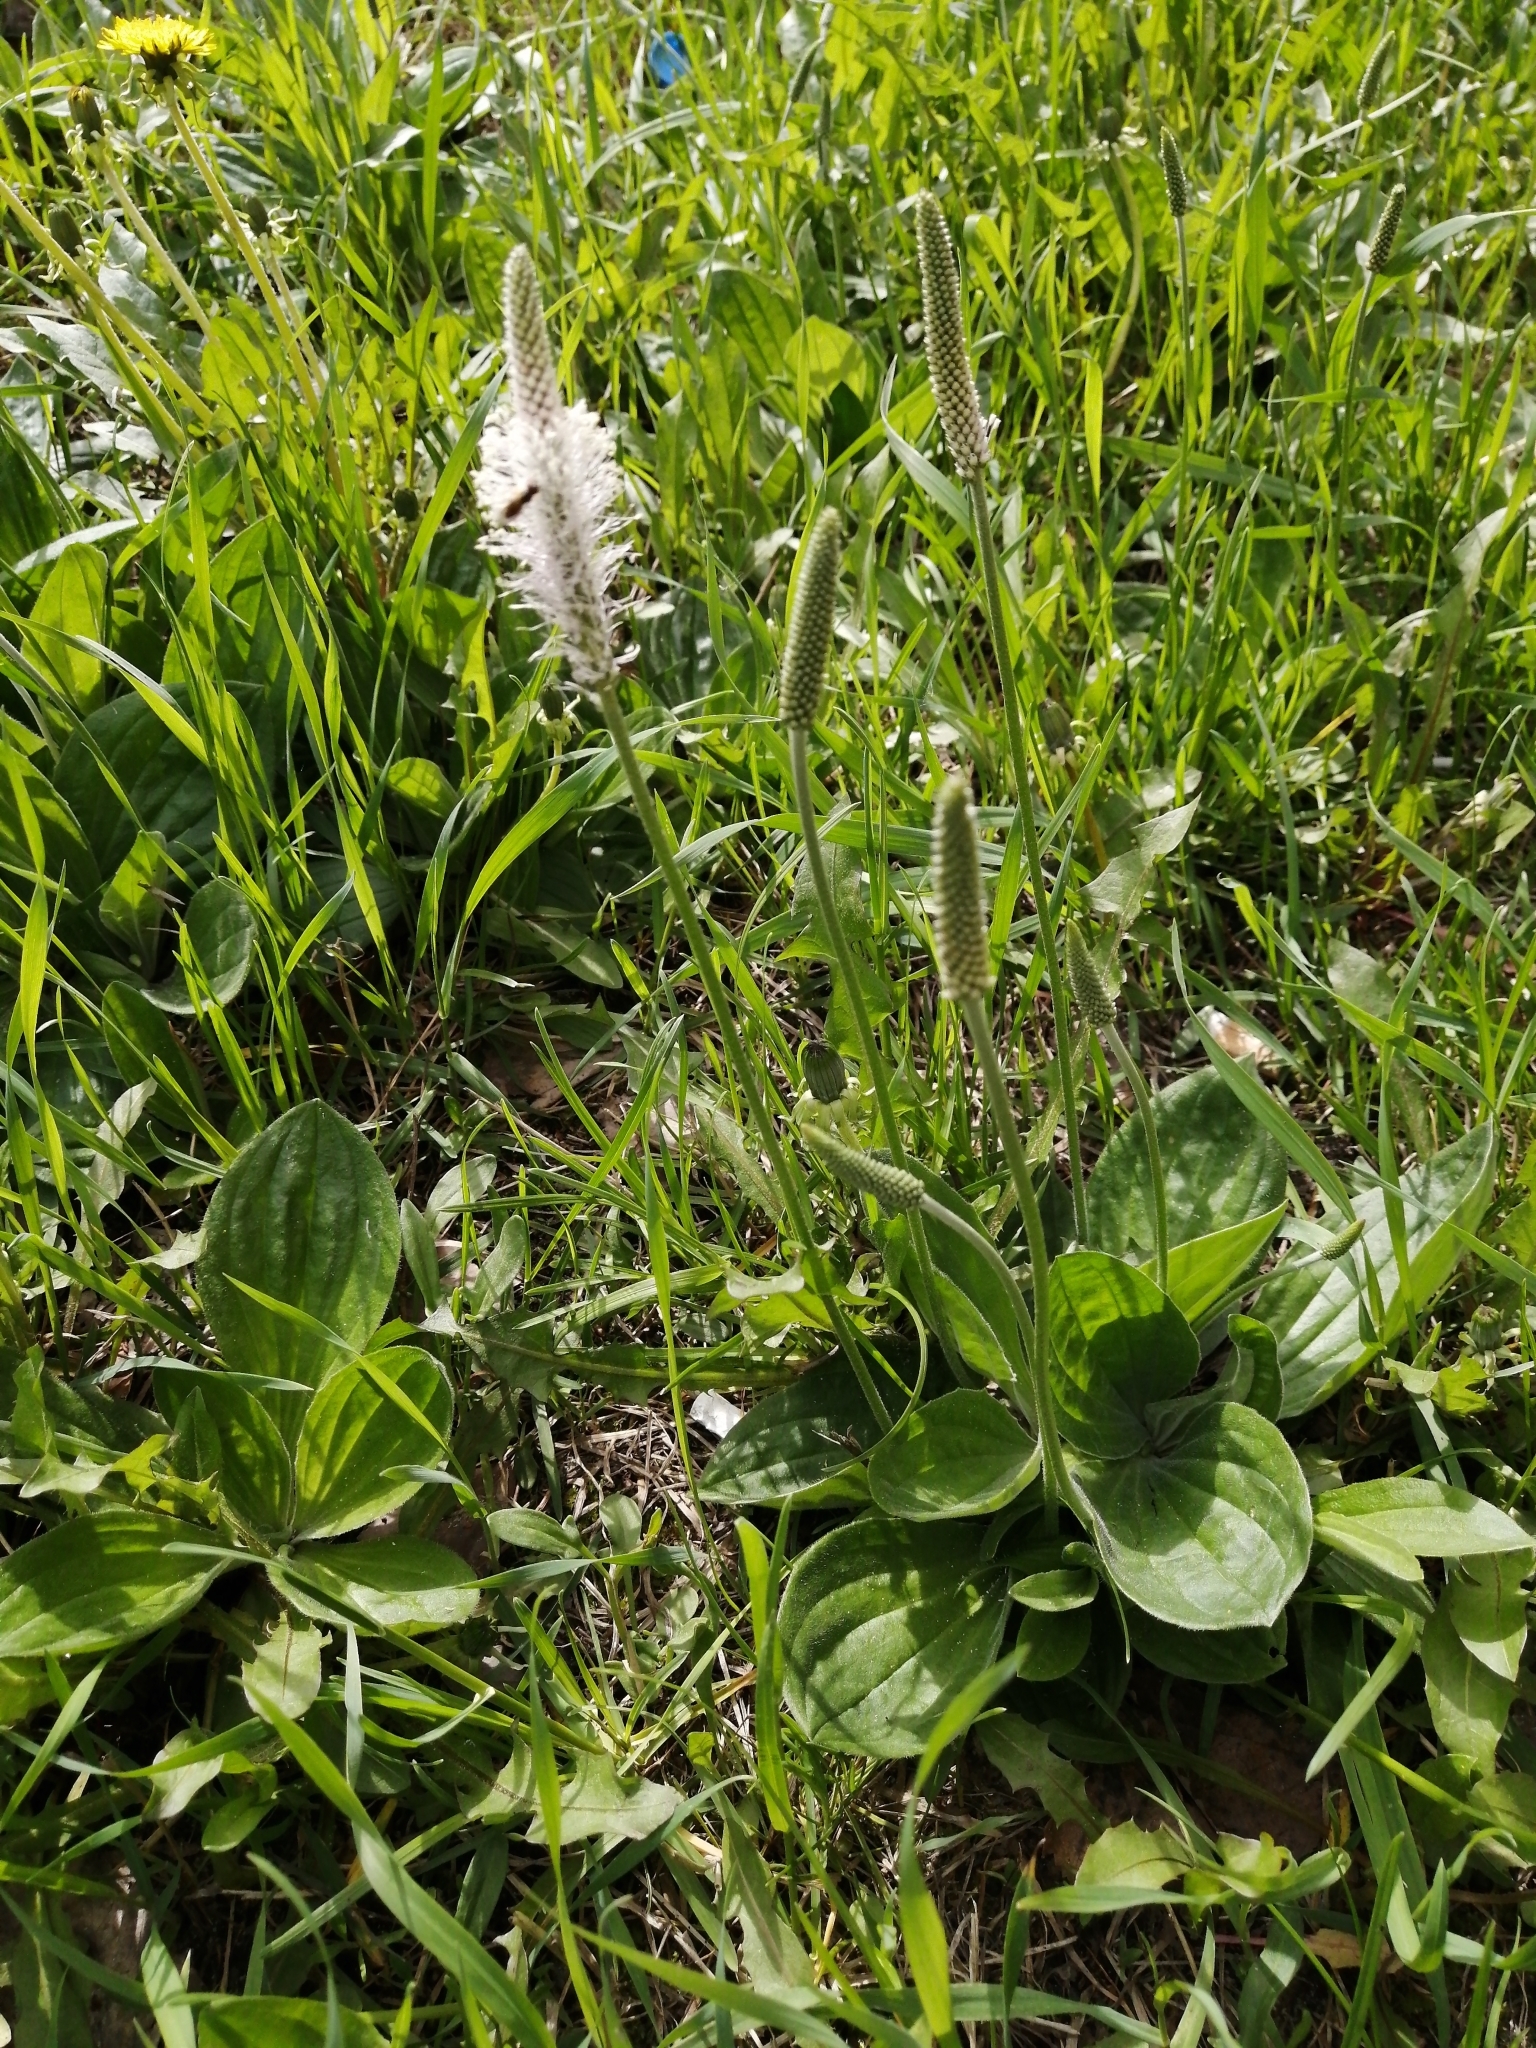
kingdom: Plantae
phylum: Tracheophyta
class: Magnoliopsida
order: Lamiales
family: Plantaginaceae
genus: Plantago
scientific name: Plantago media
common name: Hoary plantain
